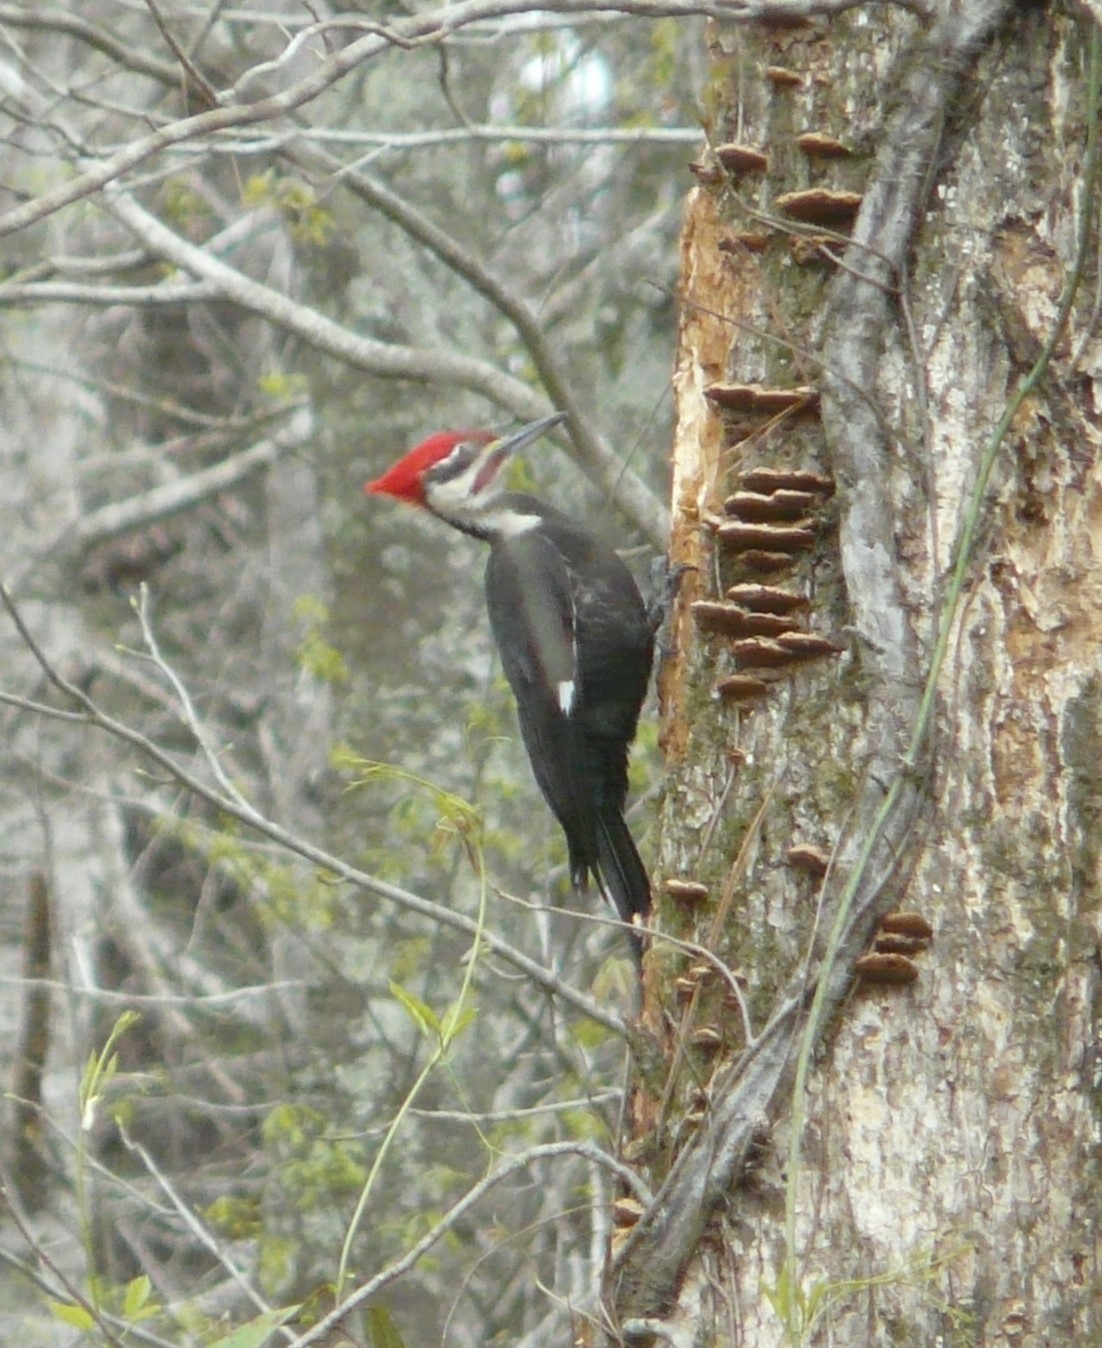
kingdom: Animalia
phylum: Chordata
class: Aves
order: Piciformes
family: Picidae
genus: Dryocopus
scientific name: Dryocopus pileatus
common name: Pileated woodpecker
